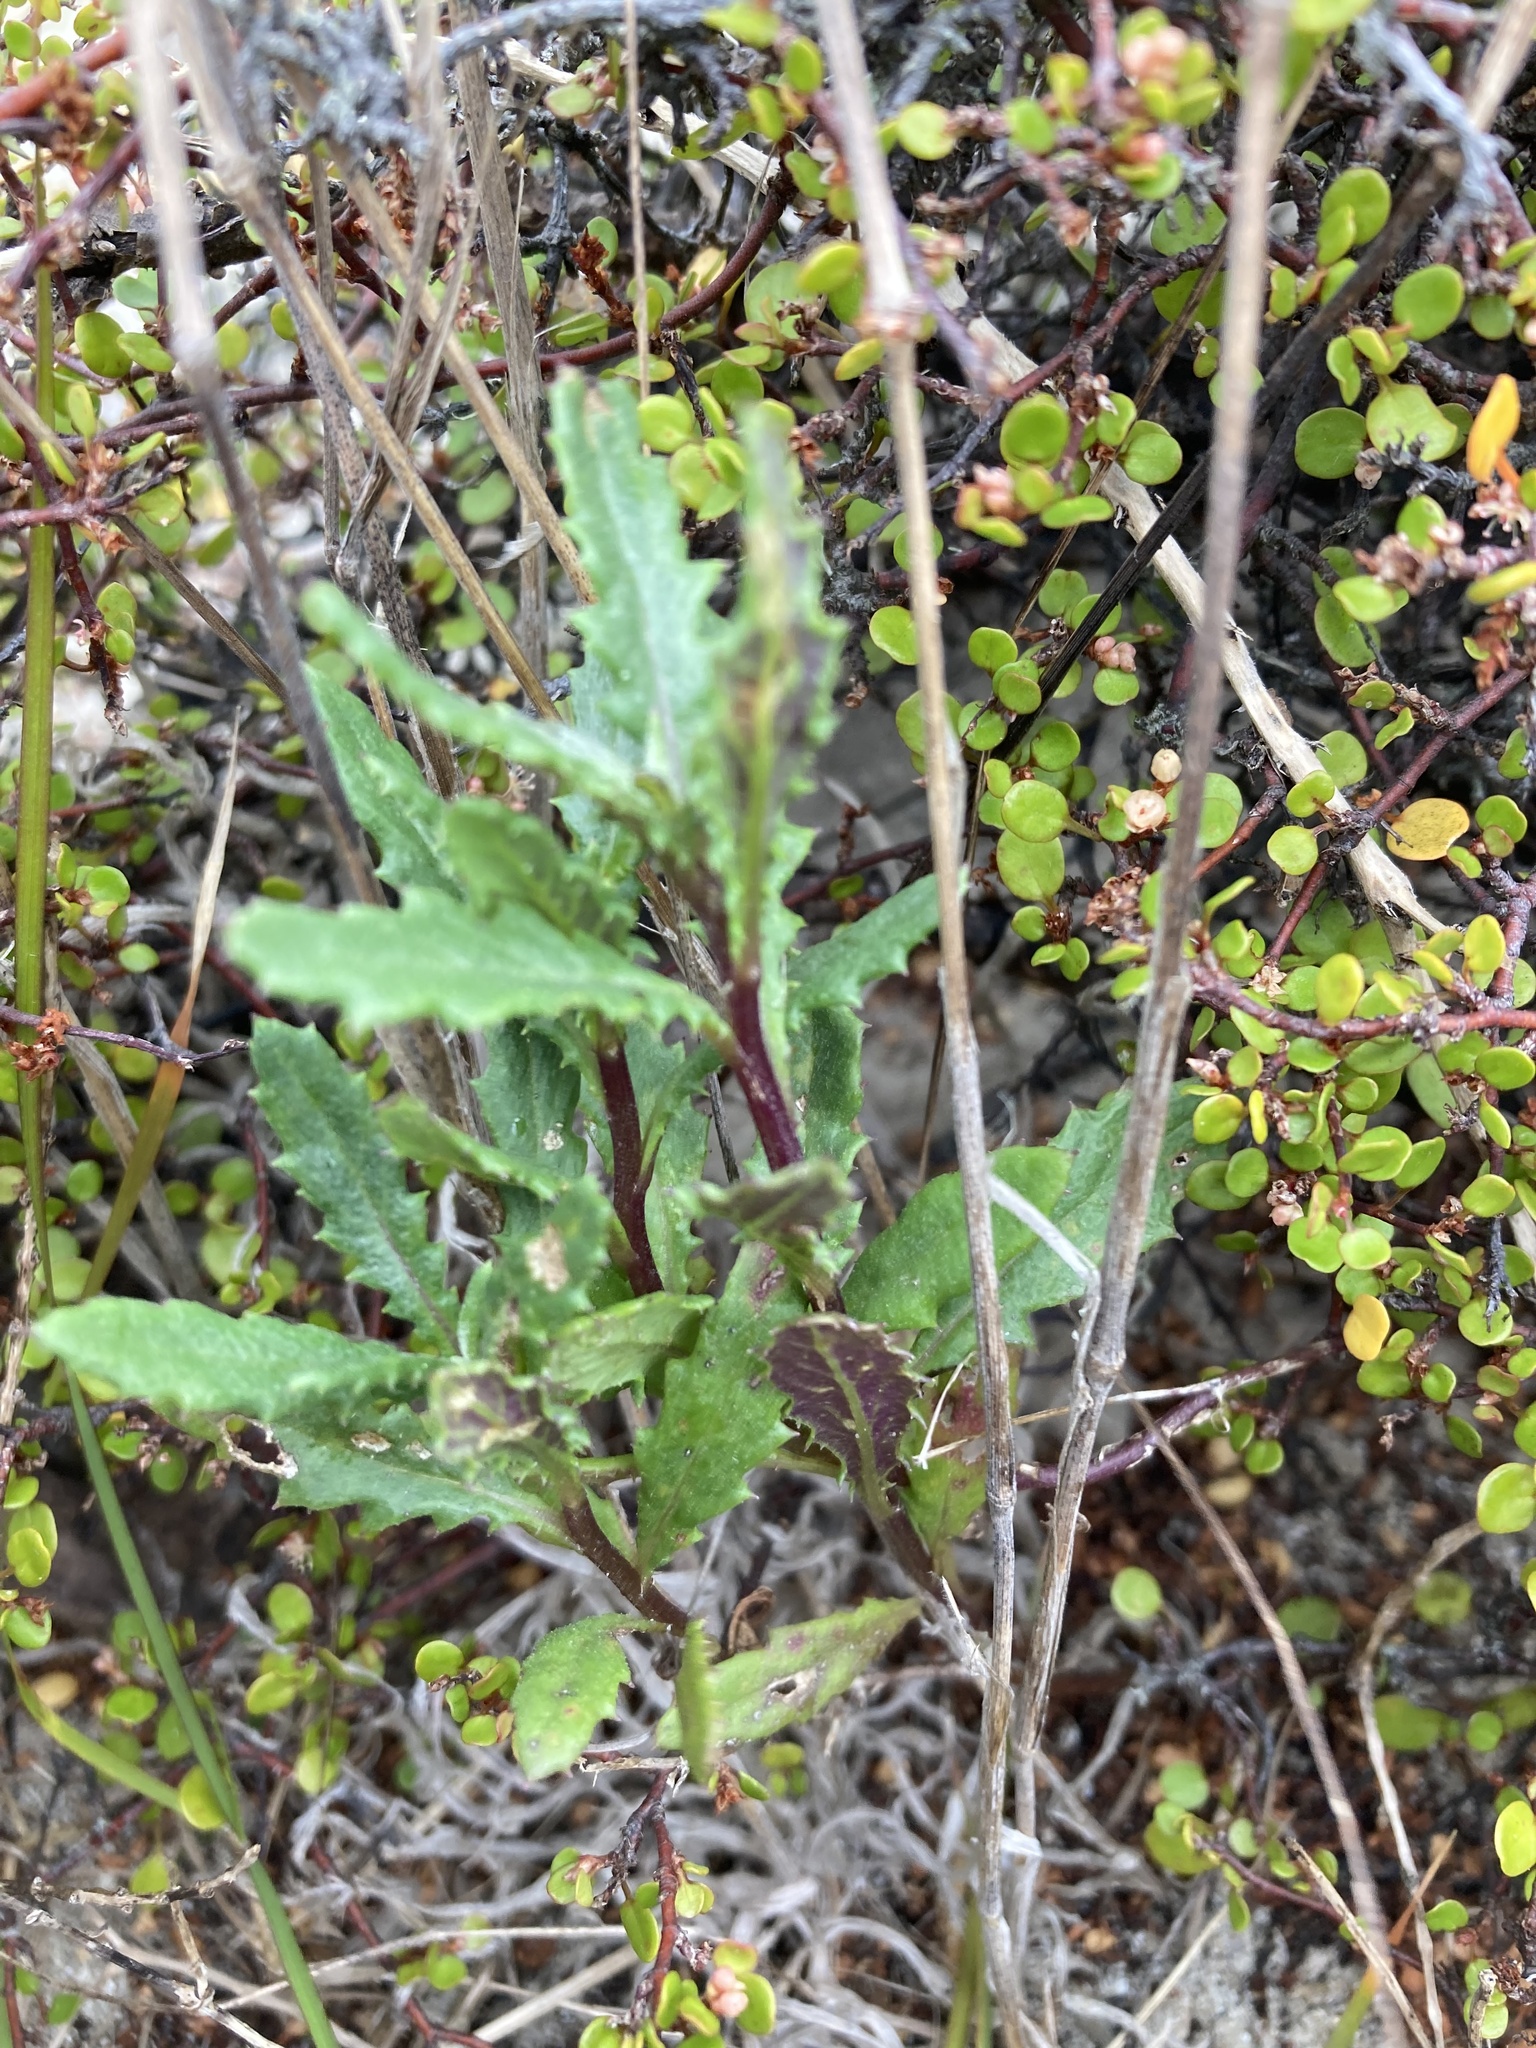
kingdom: Plantae
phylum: Tracheophyta
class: Magnoliopsida
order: Asterales
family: Asteraceae
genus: Senecio
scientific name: Senecio biserratus
